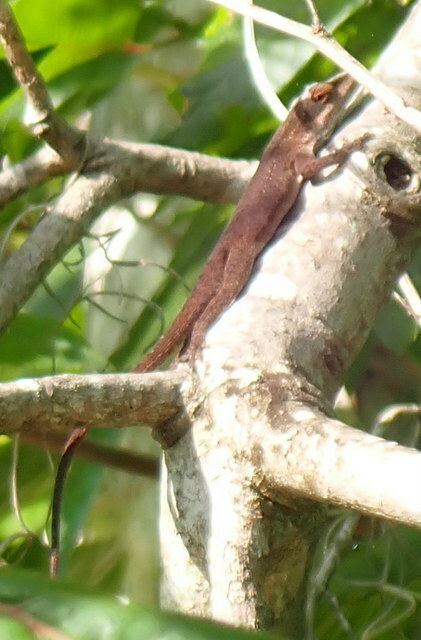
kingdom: Animalia
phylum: Chordata
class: Squamata
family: Dactyloidae
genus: Anolis
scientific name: Anolis carolinensis
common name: Green anole
